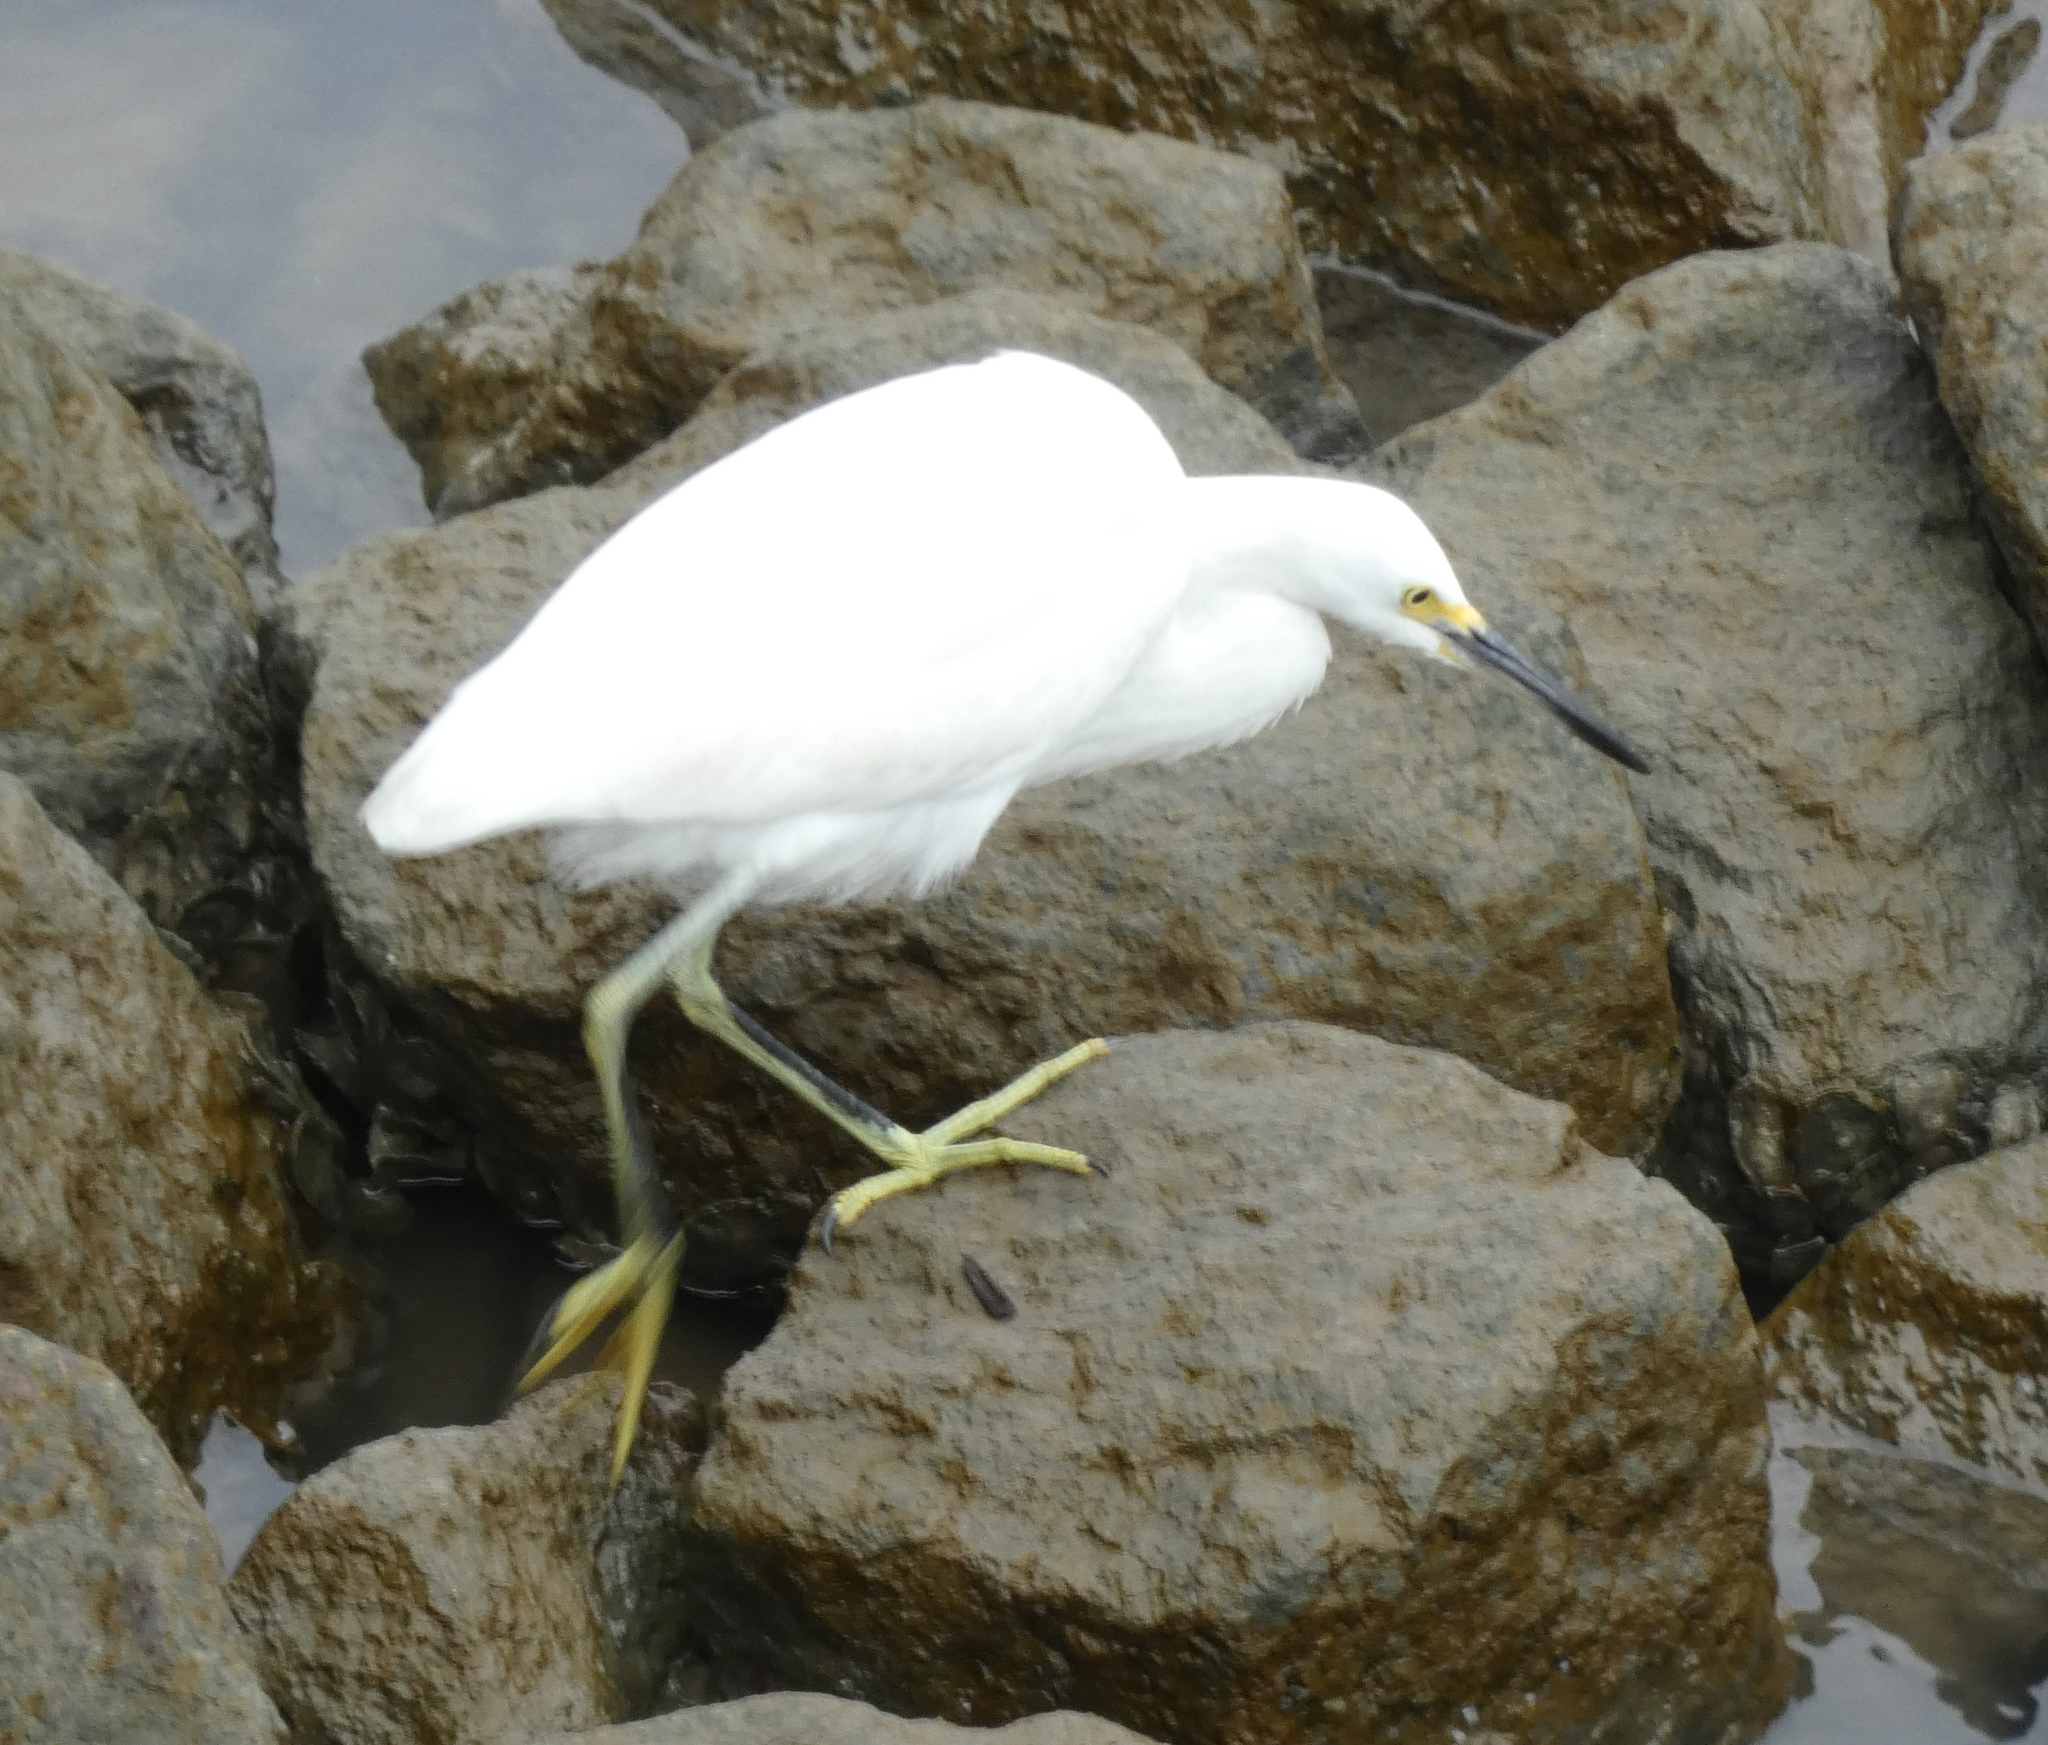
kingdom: Animalia
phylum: Chordata
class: Aves
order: Pelecaniformes
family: Ardeidae
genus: Egretta
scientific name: Egretta thula
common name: Snowy egret
